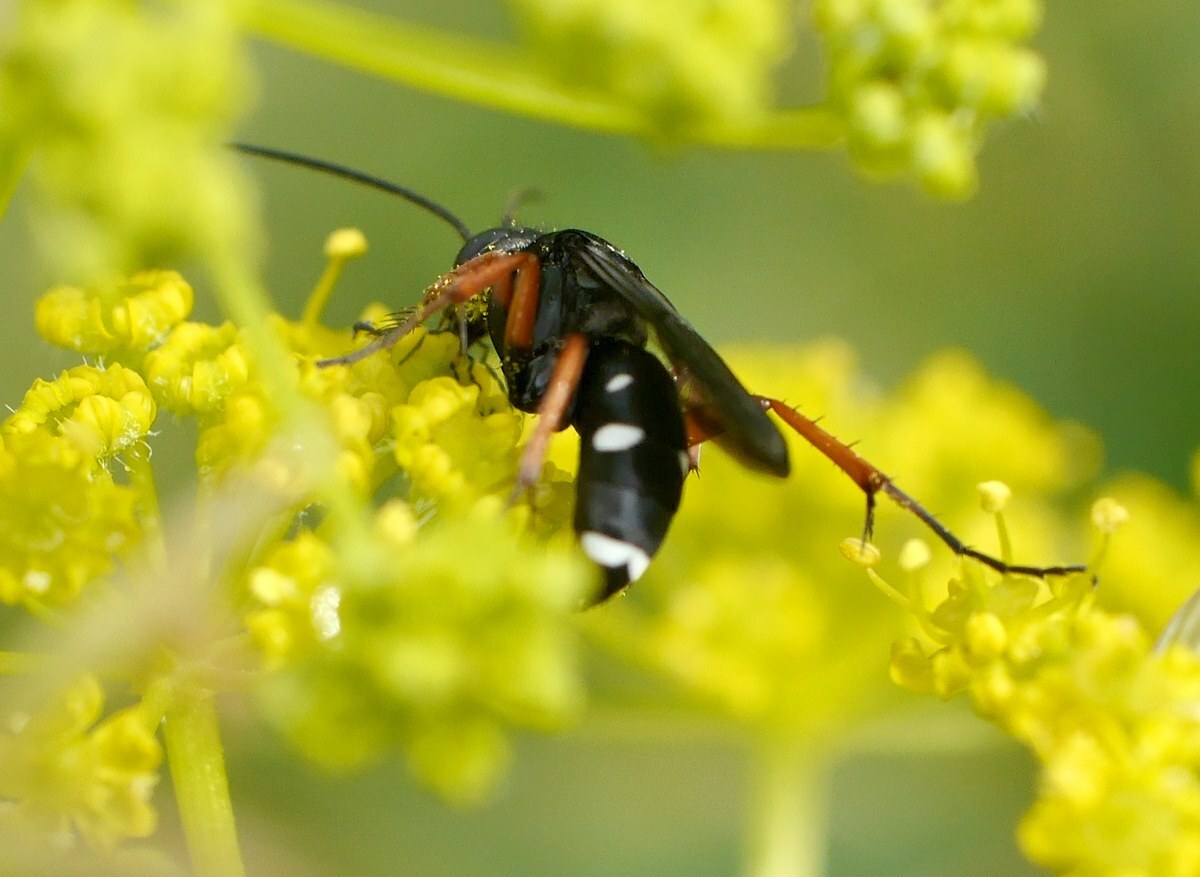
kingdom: Animalia
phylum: Arthropoda
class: Insecta
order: Hymenoptera
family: Pompilidae
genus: Episyron
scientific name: Episyron albonotatum
